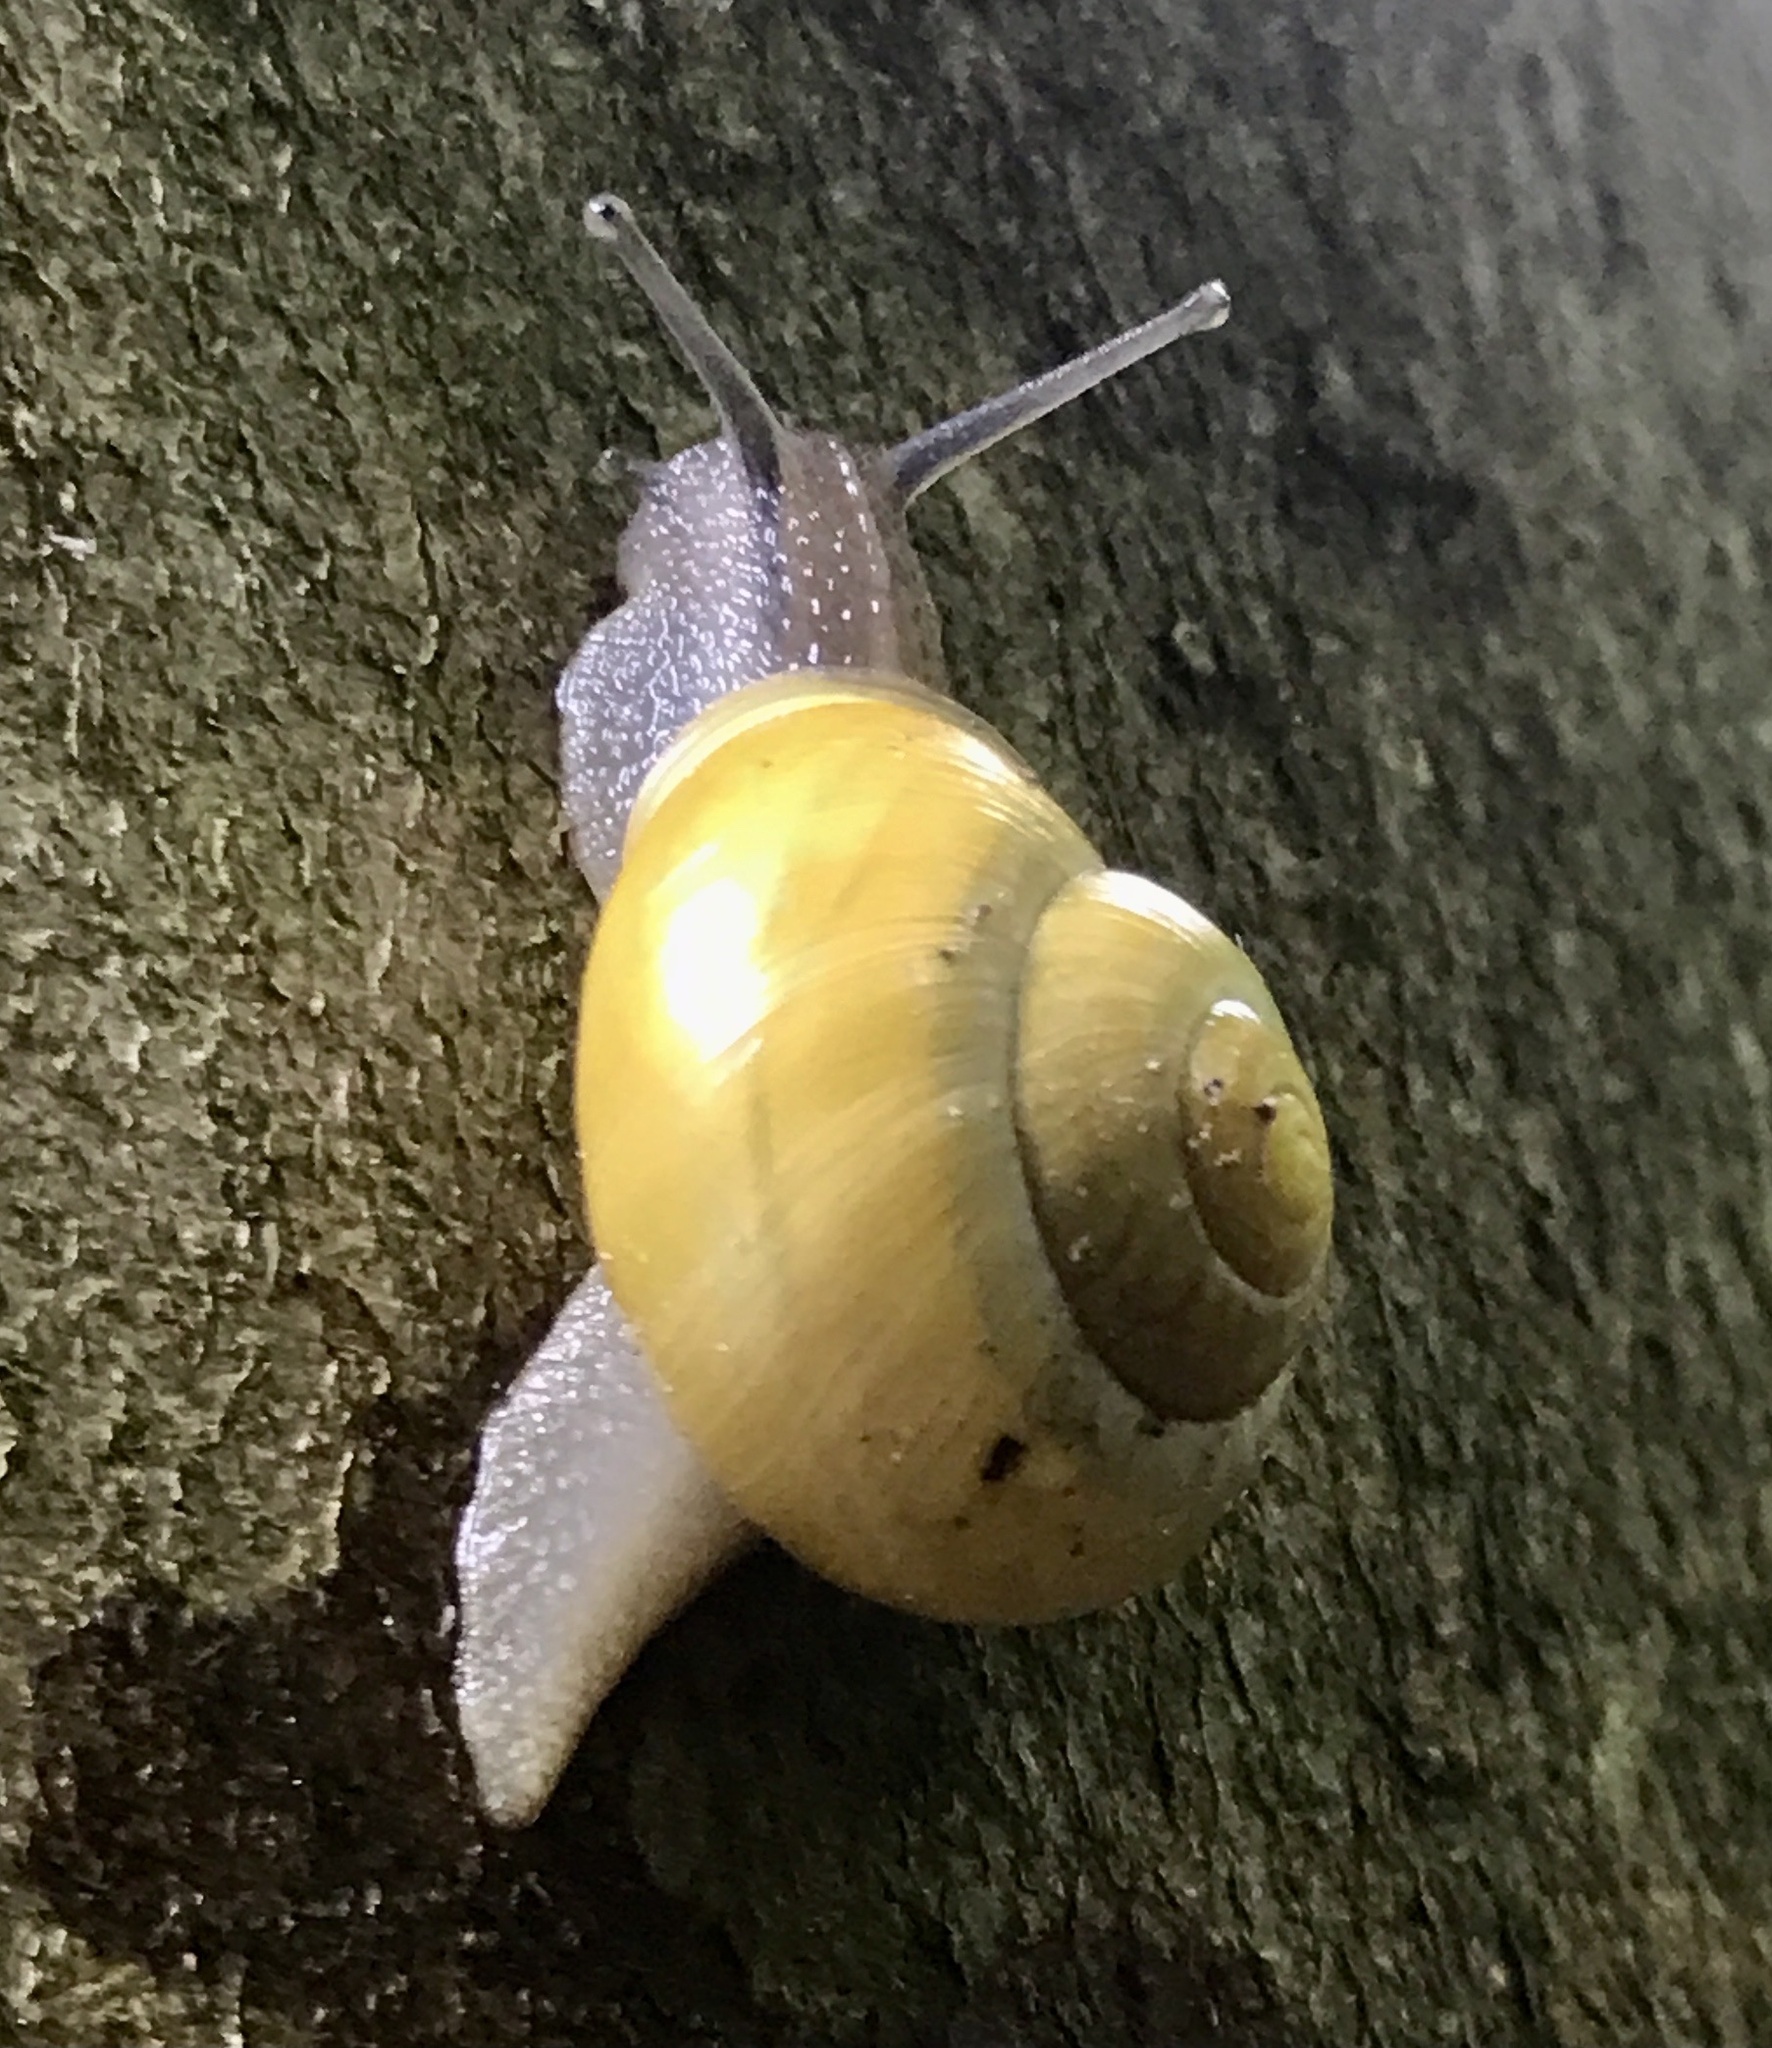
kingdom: Animalia
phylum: Mollusca
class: Gastropoda
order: Stylommatophora
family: Helicidae
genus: Cepaea
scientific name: Cepaea hortensis
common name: White-lip gardensnail
